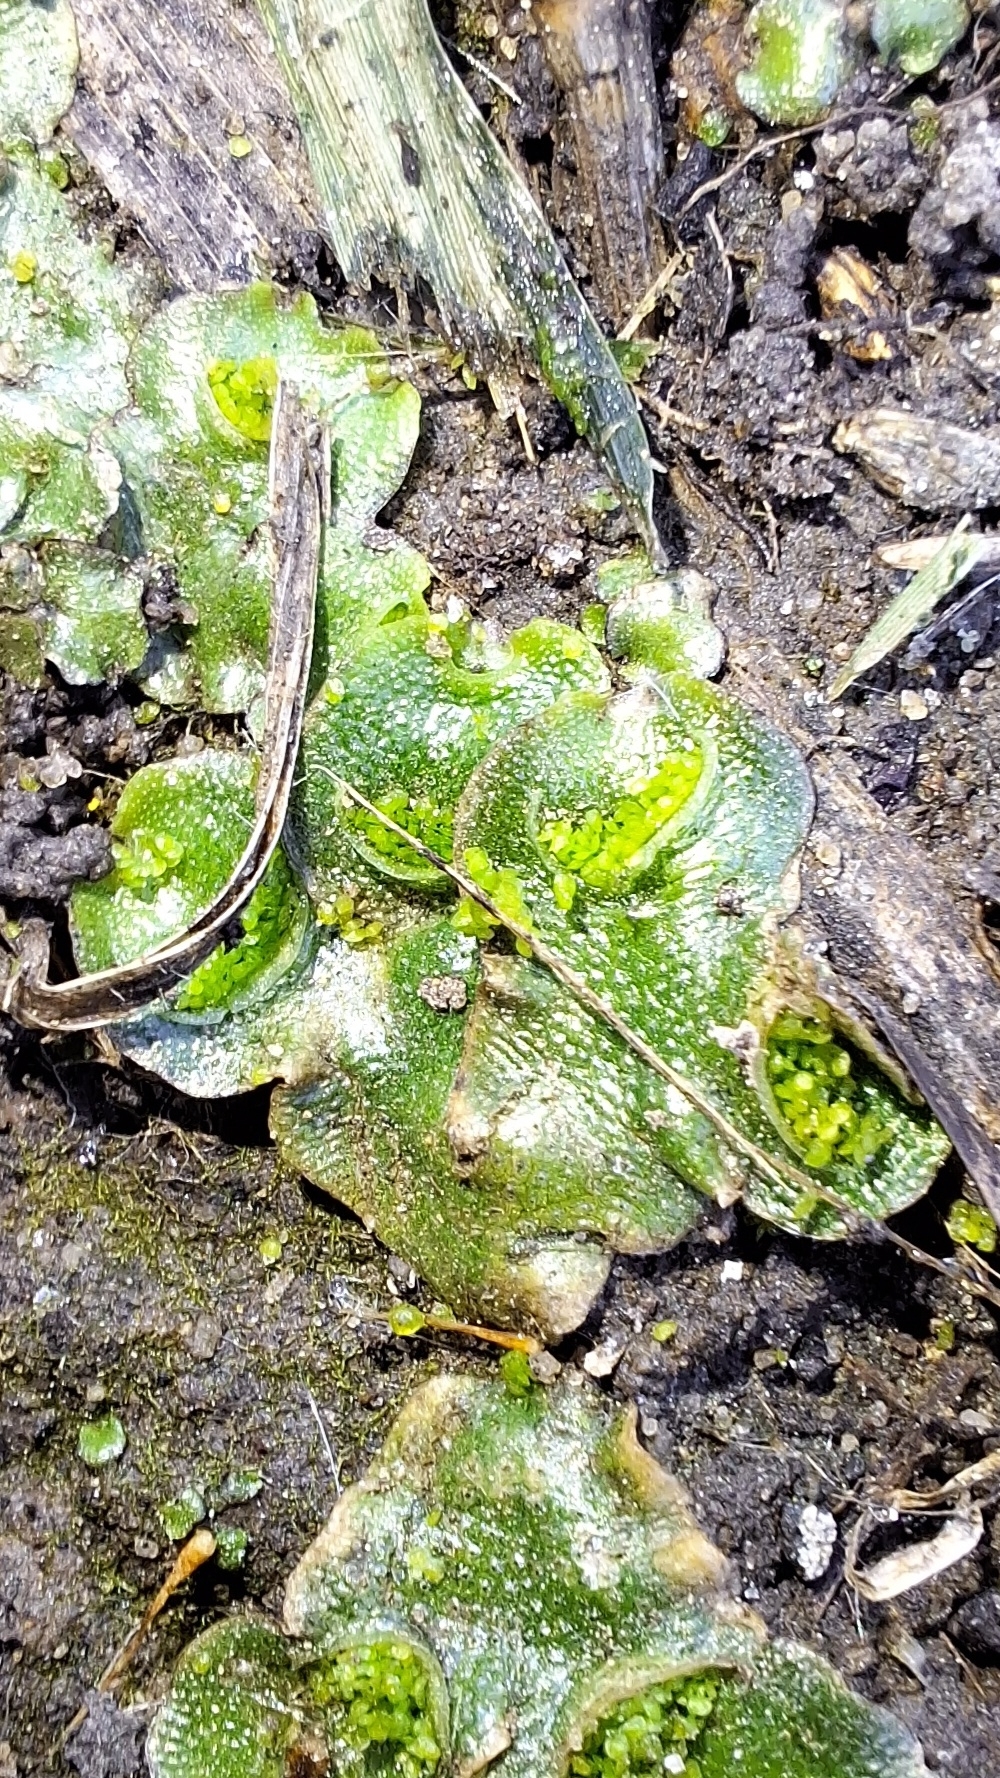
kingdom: Plantae
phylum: Marchantiophyta
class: Marchantiopsida
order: Lunulariales
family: Lunulariaceae
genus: Lunularia
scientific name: Lunularia cruciata
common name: Crescent-cup liverwort
